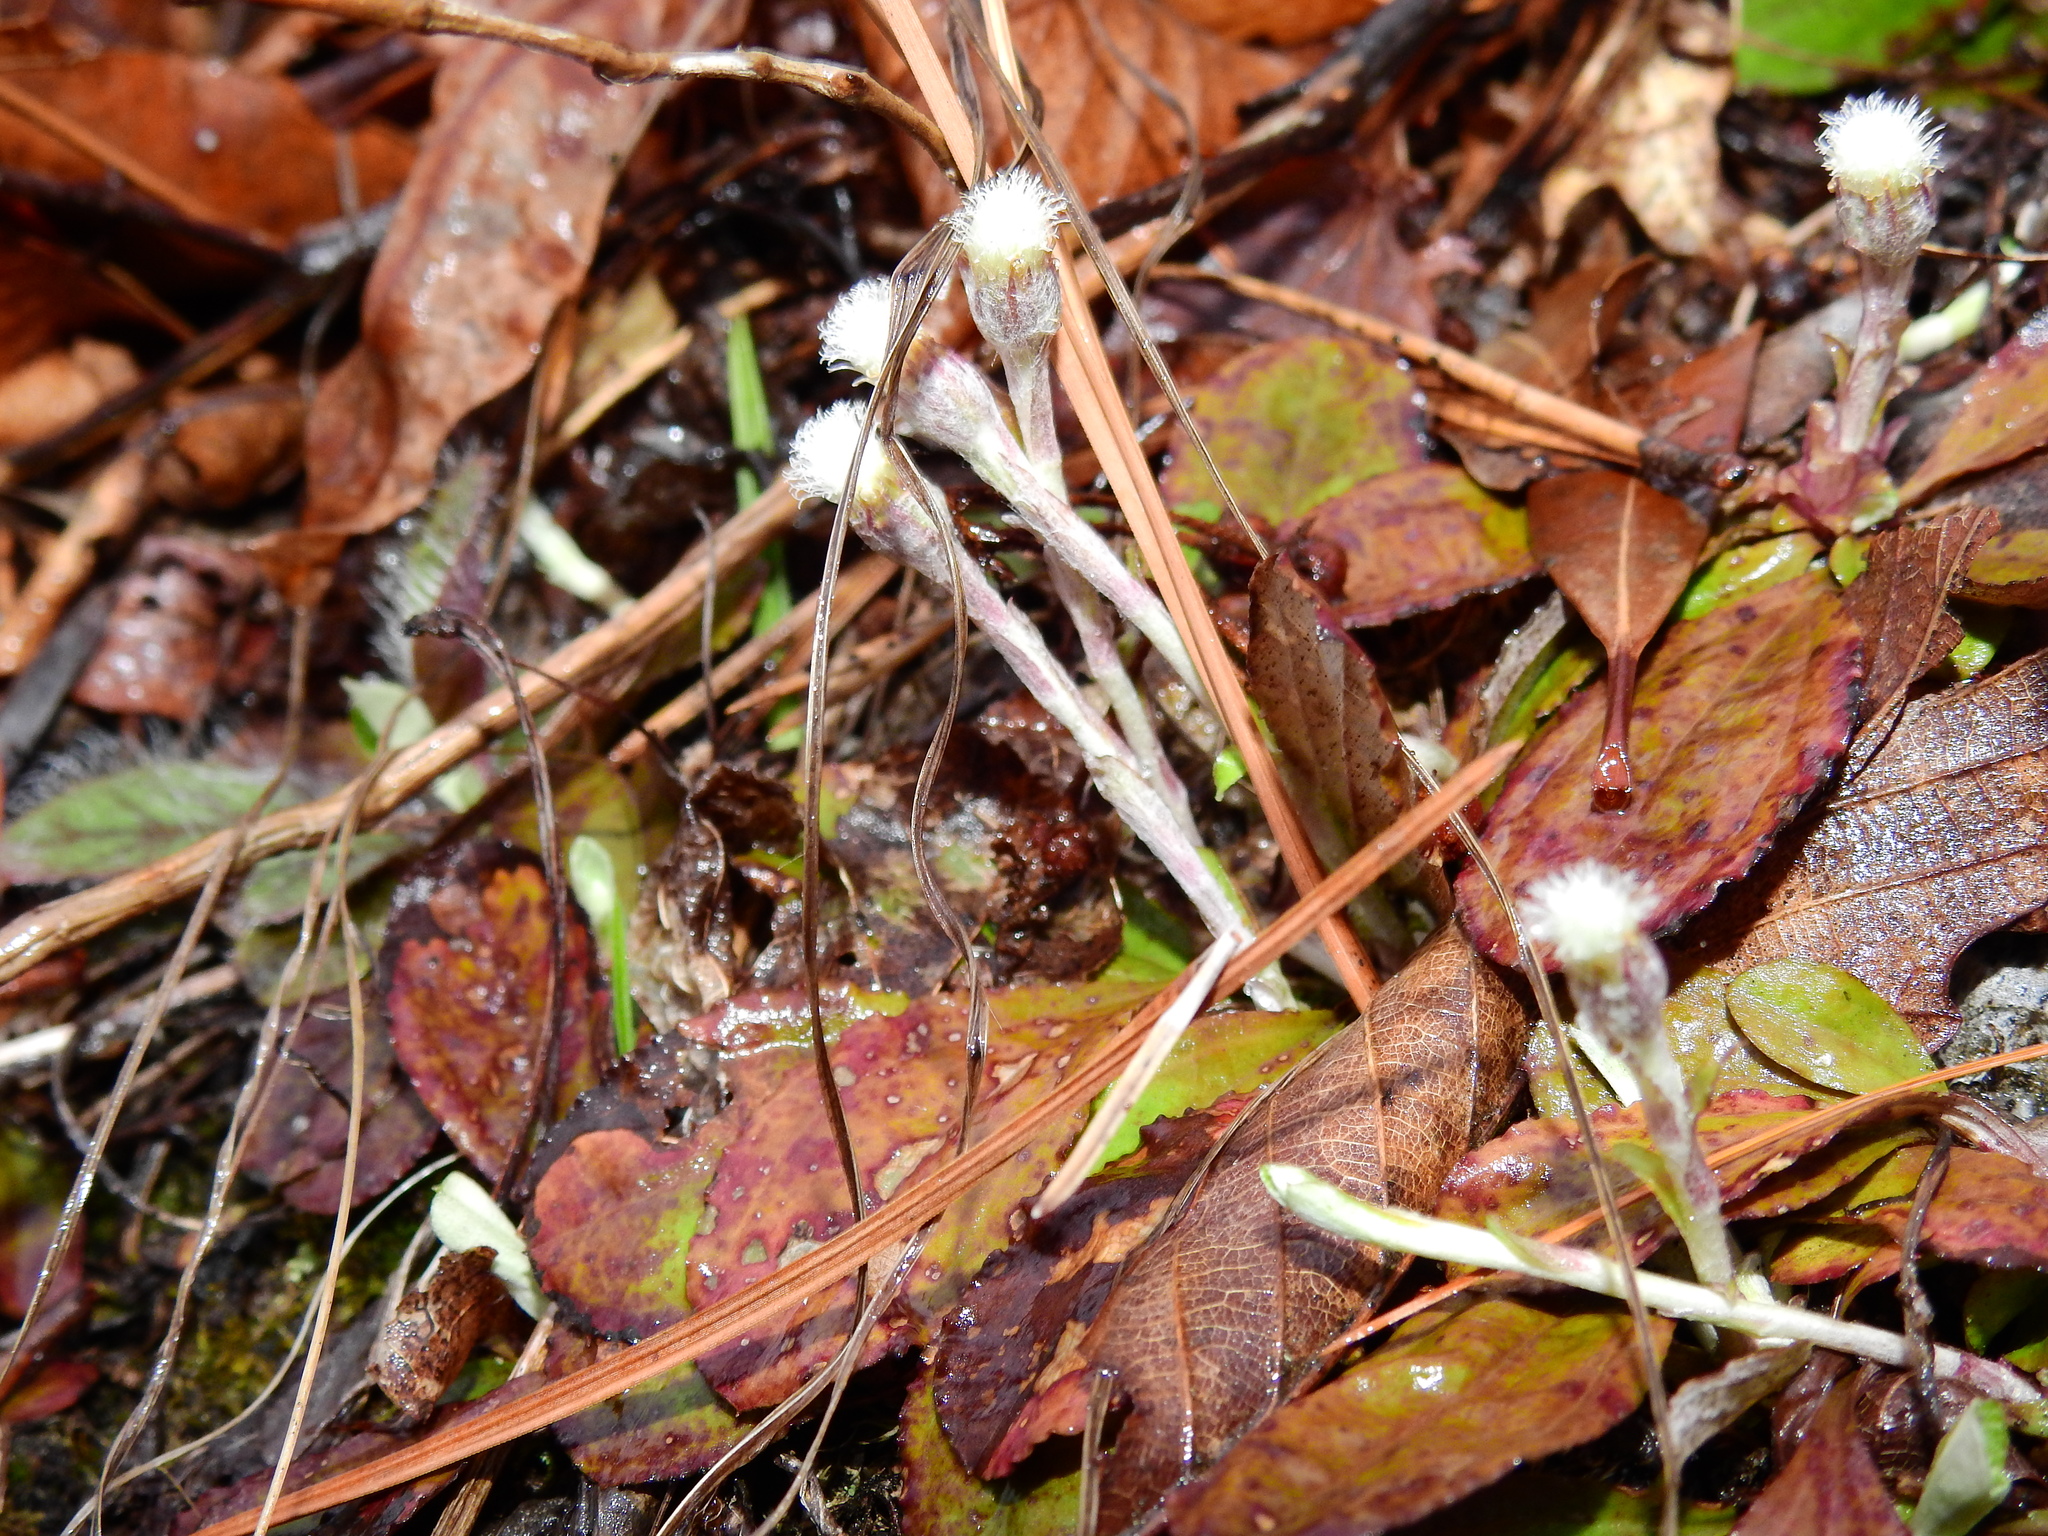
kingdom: Plantae
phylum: Tracheophyta
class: Magnoliopsida
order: Asterales
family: Asteraceae
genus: Antennaria
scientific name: Antennaria solitaria
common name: Single-head pussytoes
